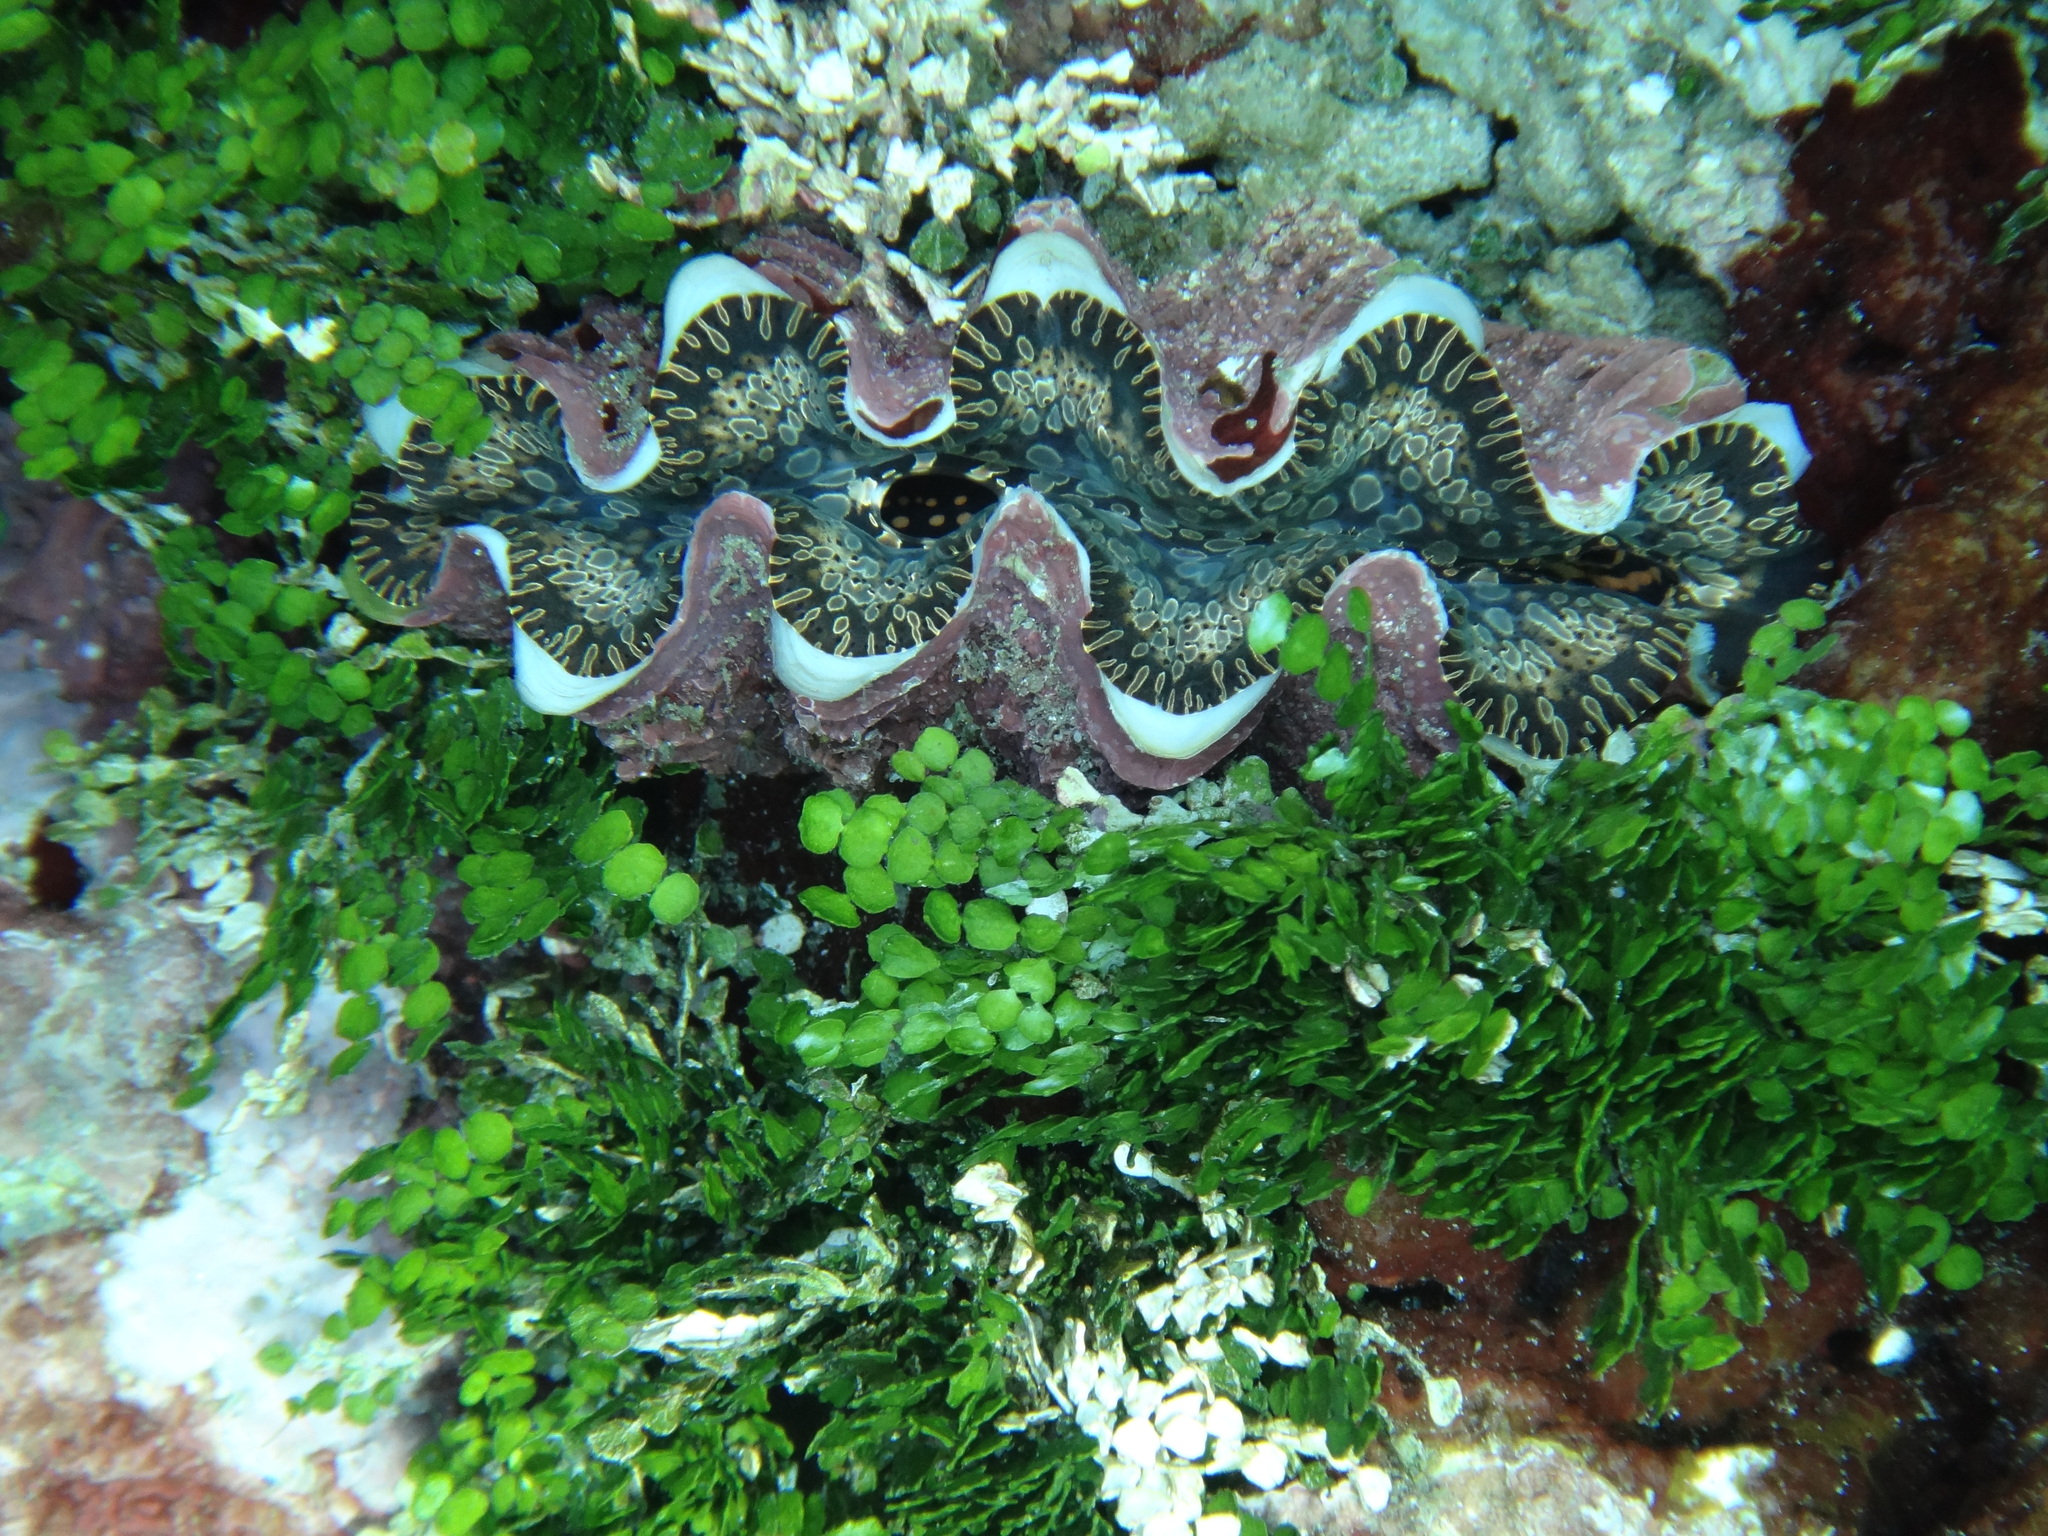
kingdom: Animalia
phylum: Mollusca
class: Bivalvia
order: Cardiida
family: Cardiidae
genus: Tridacna
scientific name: Tridacna noae
